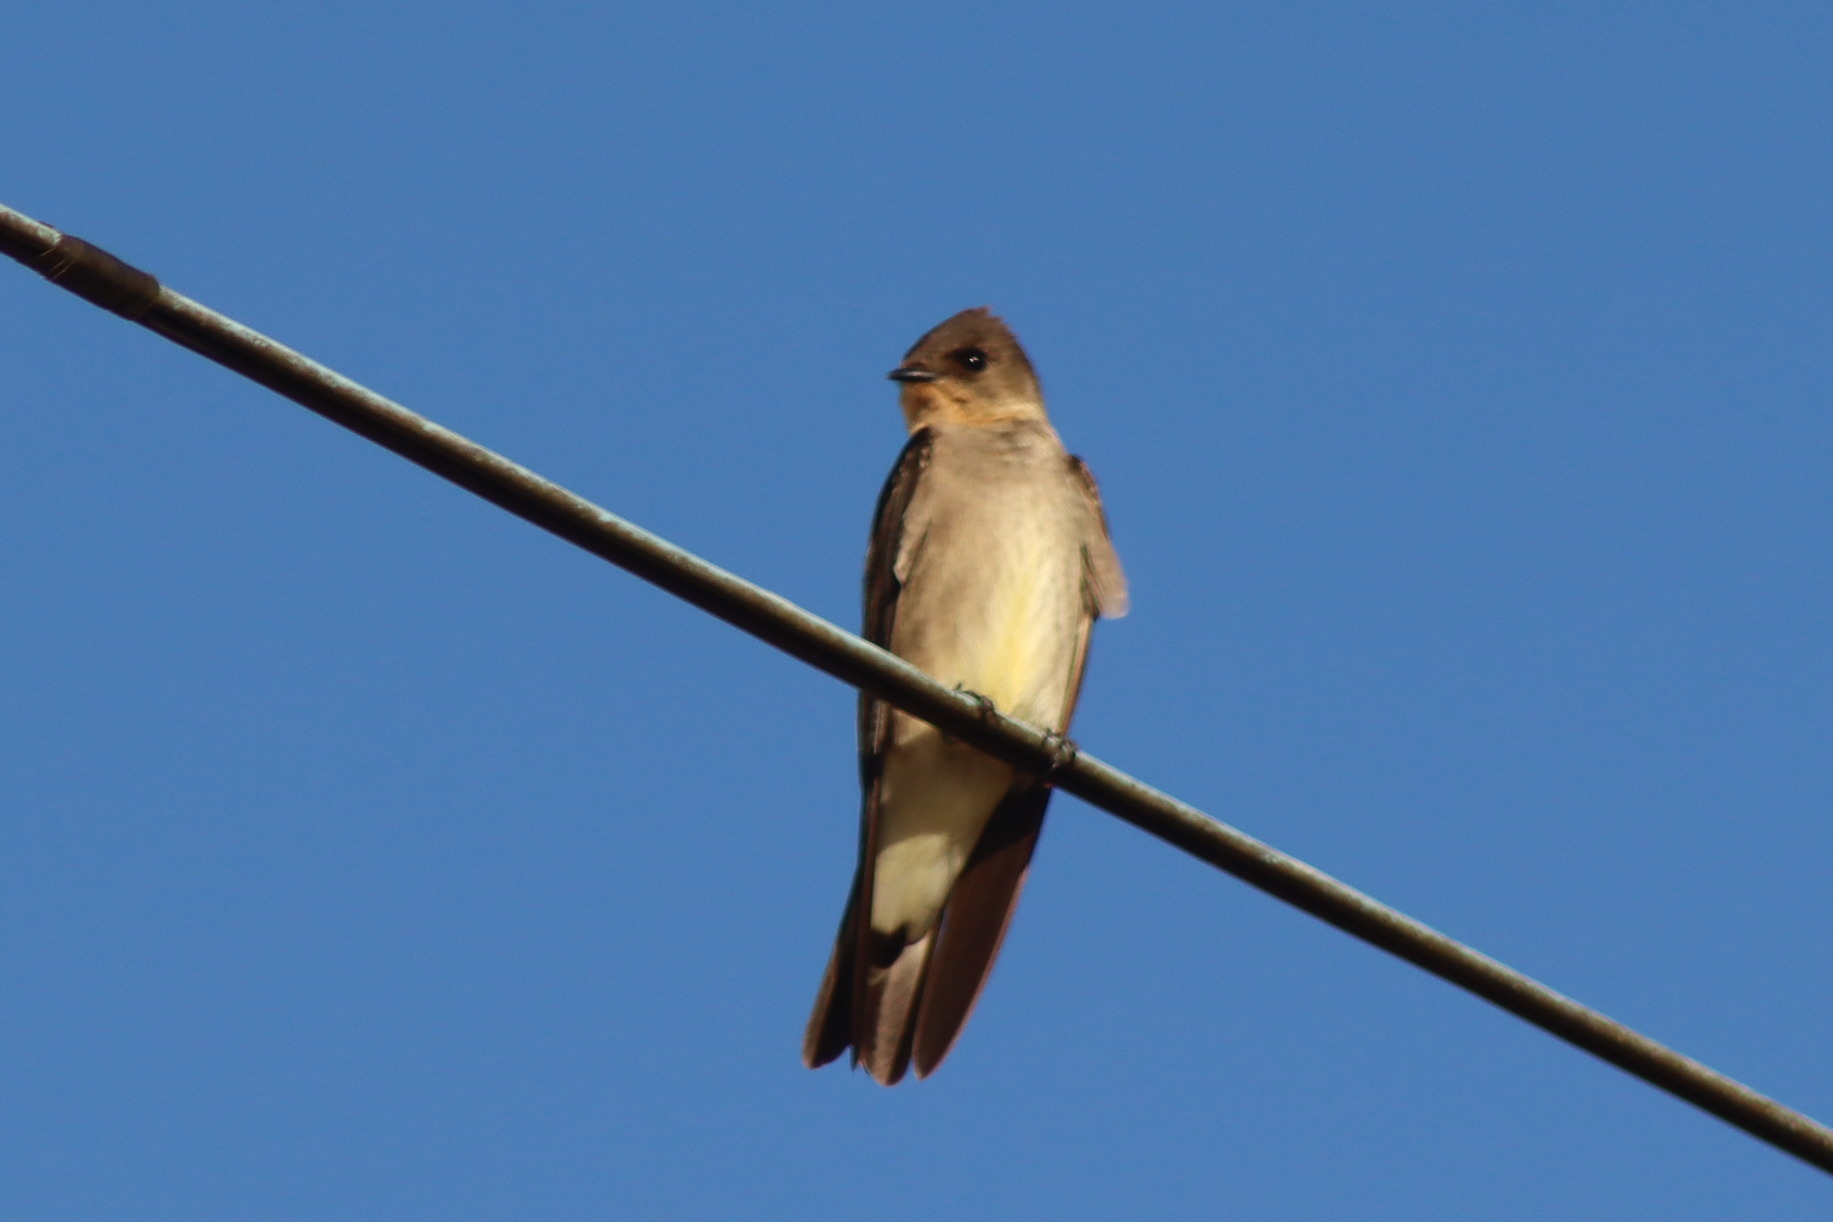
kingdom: Animalia
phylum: Chordata
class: Aves
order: Passeriformes
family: Hirundinidae
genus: Stelgidopteryx
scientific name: Stelgidopteryx ruficollis
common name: Southern rough-winged swallow
